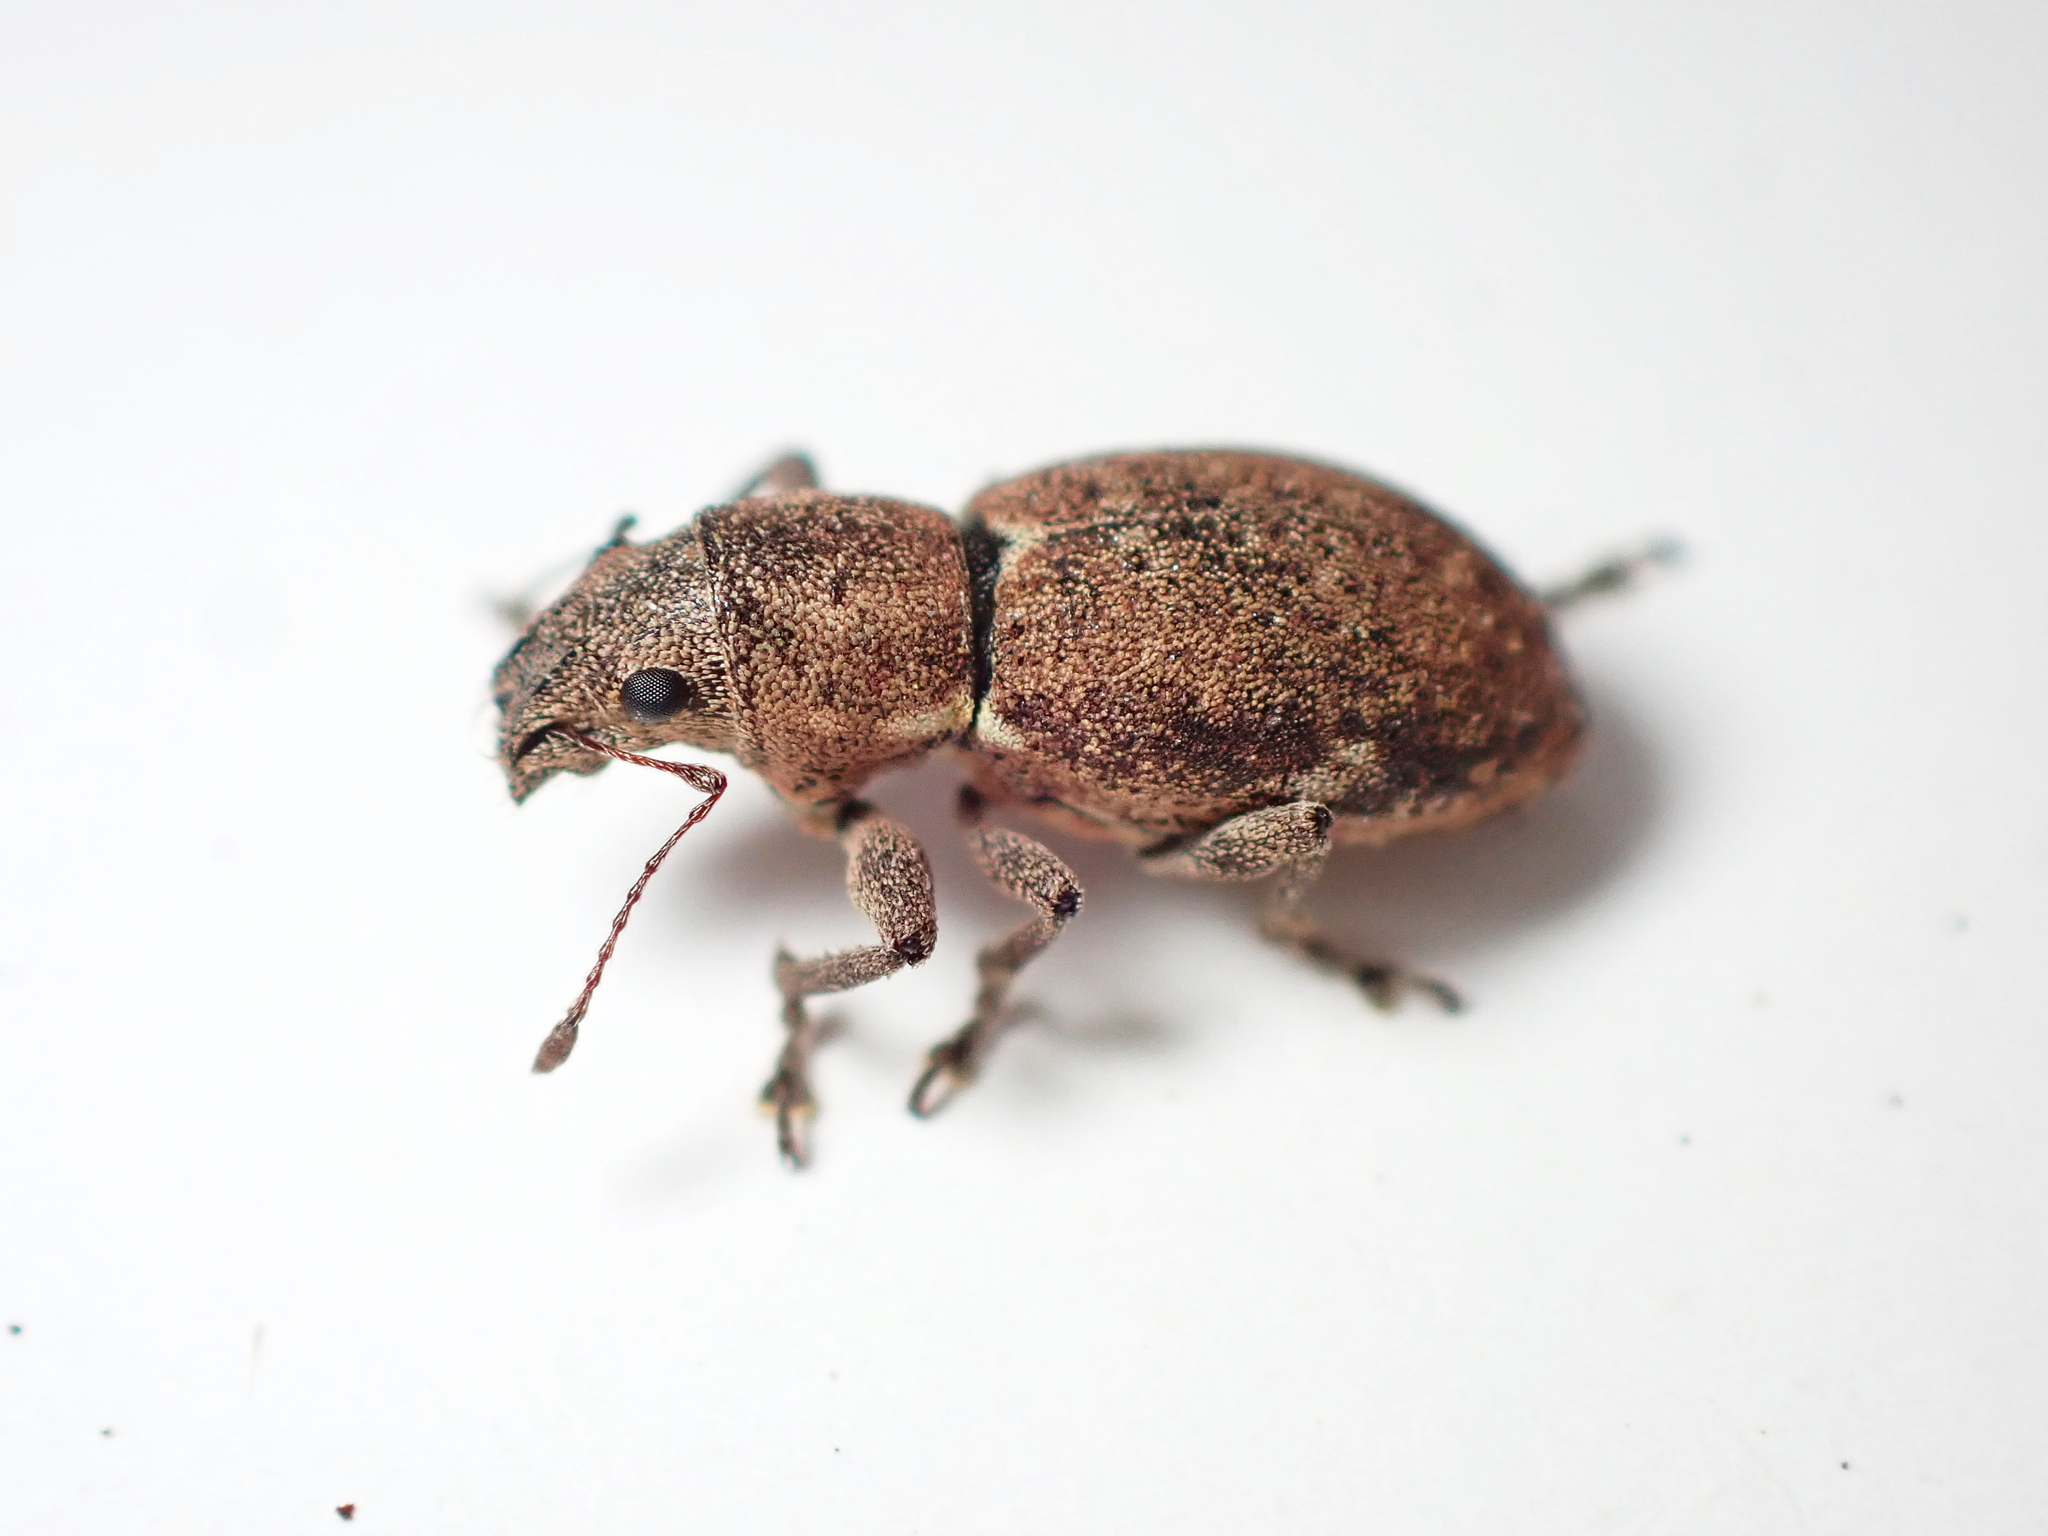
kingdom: Animalia
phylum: Arthropoda
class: Insecta
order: Coleoptera
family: Curculionidae
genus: Naupactus
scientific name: Naupactus cervinus
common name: Fuller rose beetle
